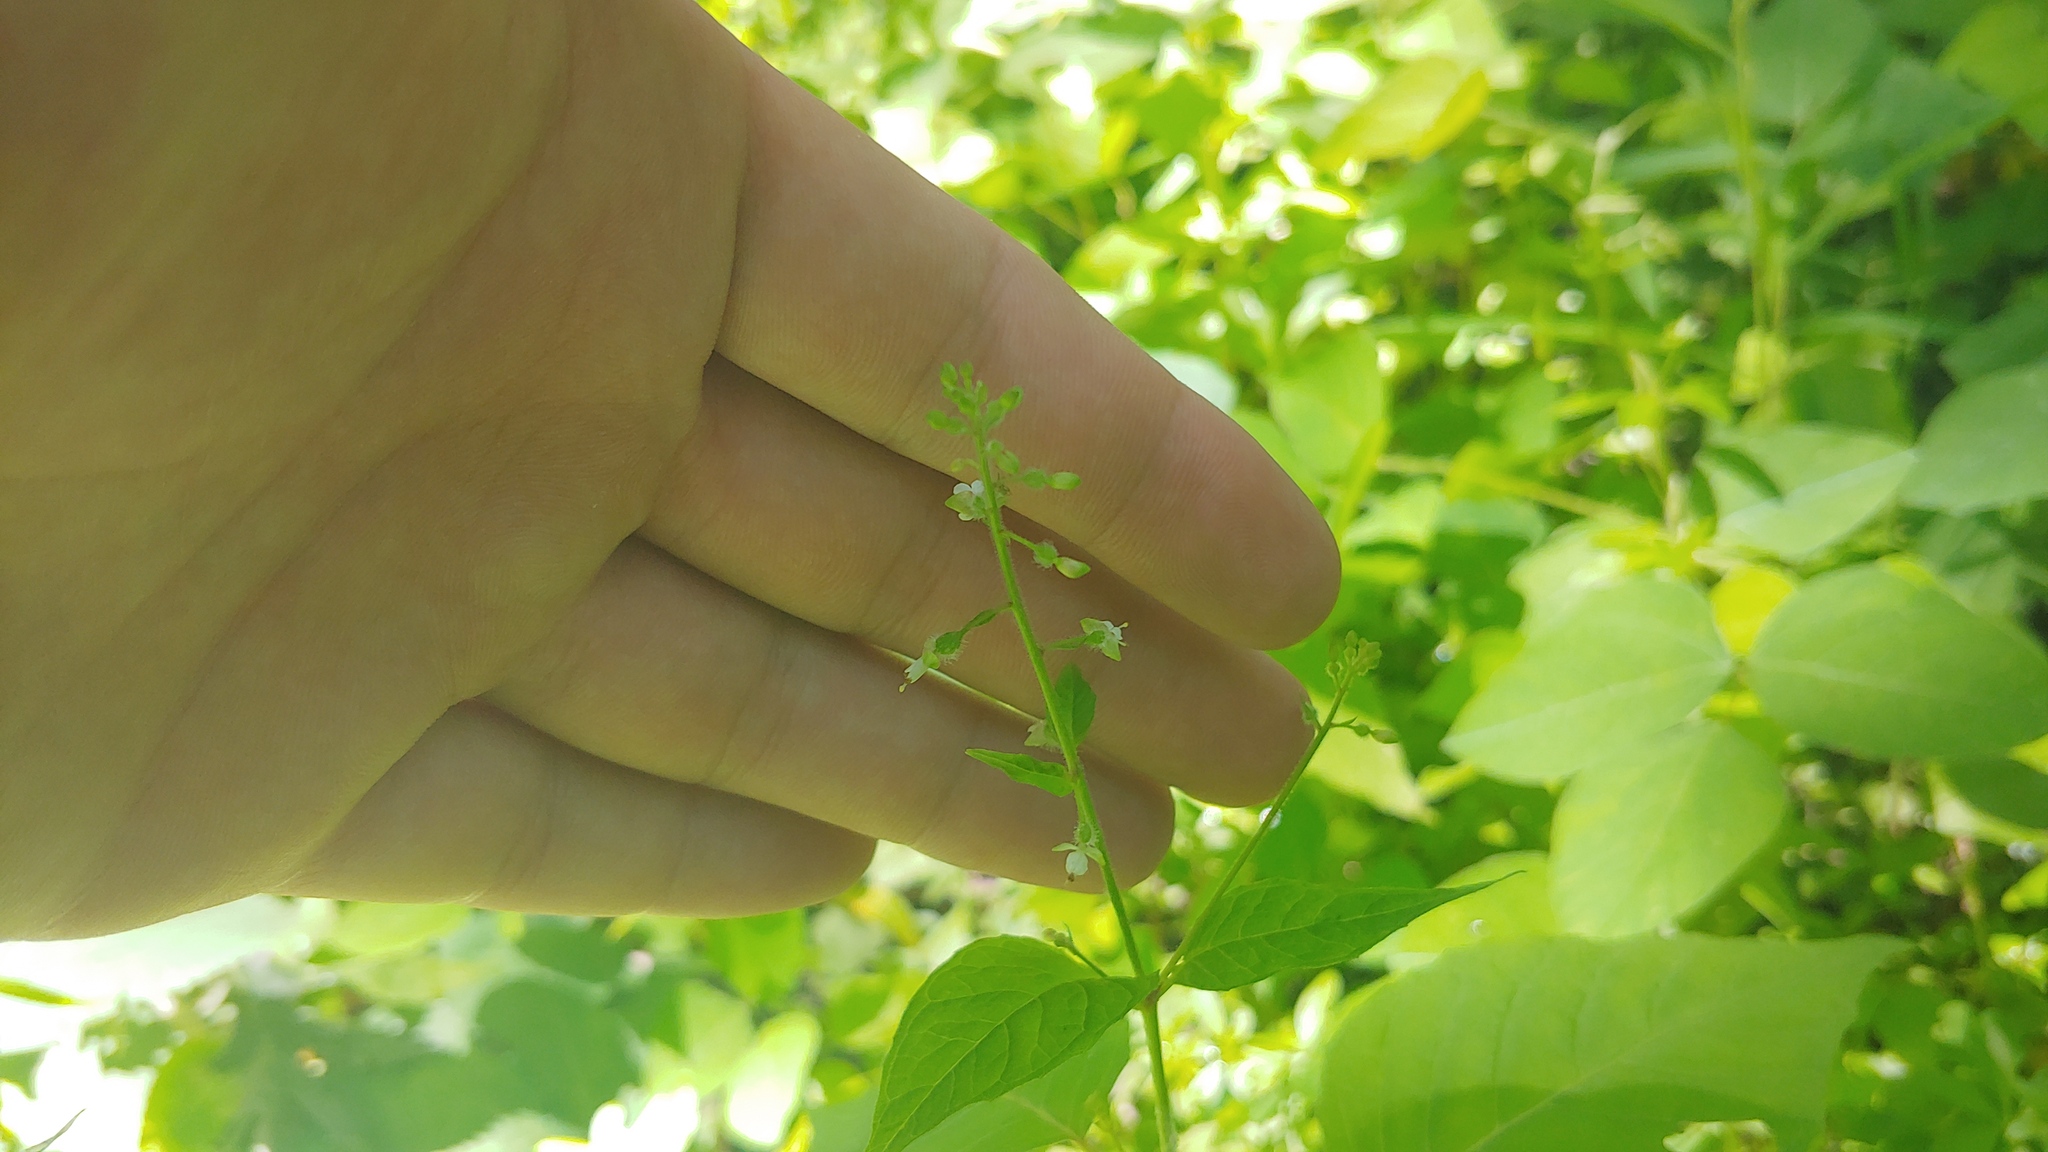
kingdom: Plantae
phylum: Tracheophyta
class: Magnoliopsida
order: Myrtales
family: Onagraceae
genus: Circaea
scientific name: Circaea canadensis
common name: Broad-leaved enchanter's nightshade
